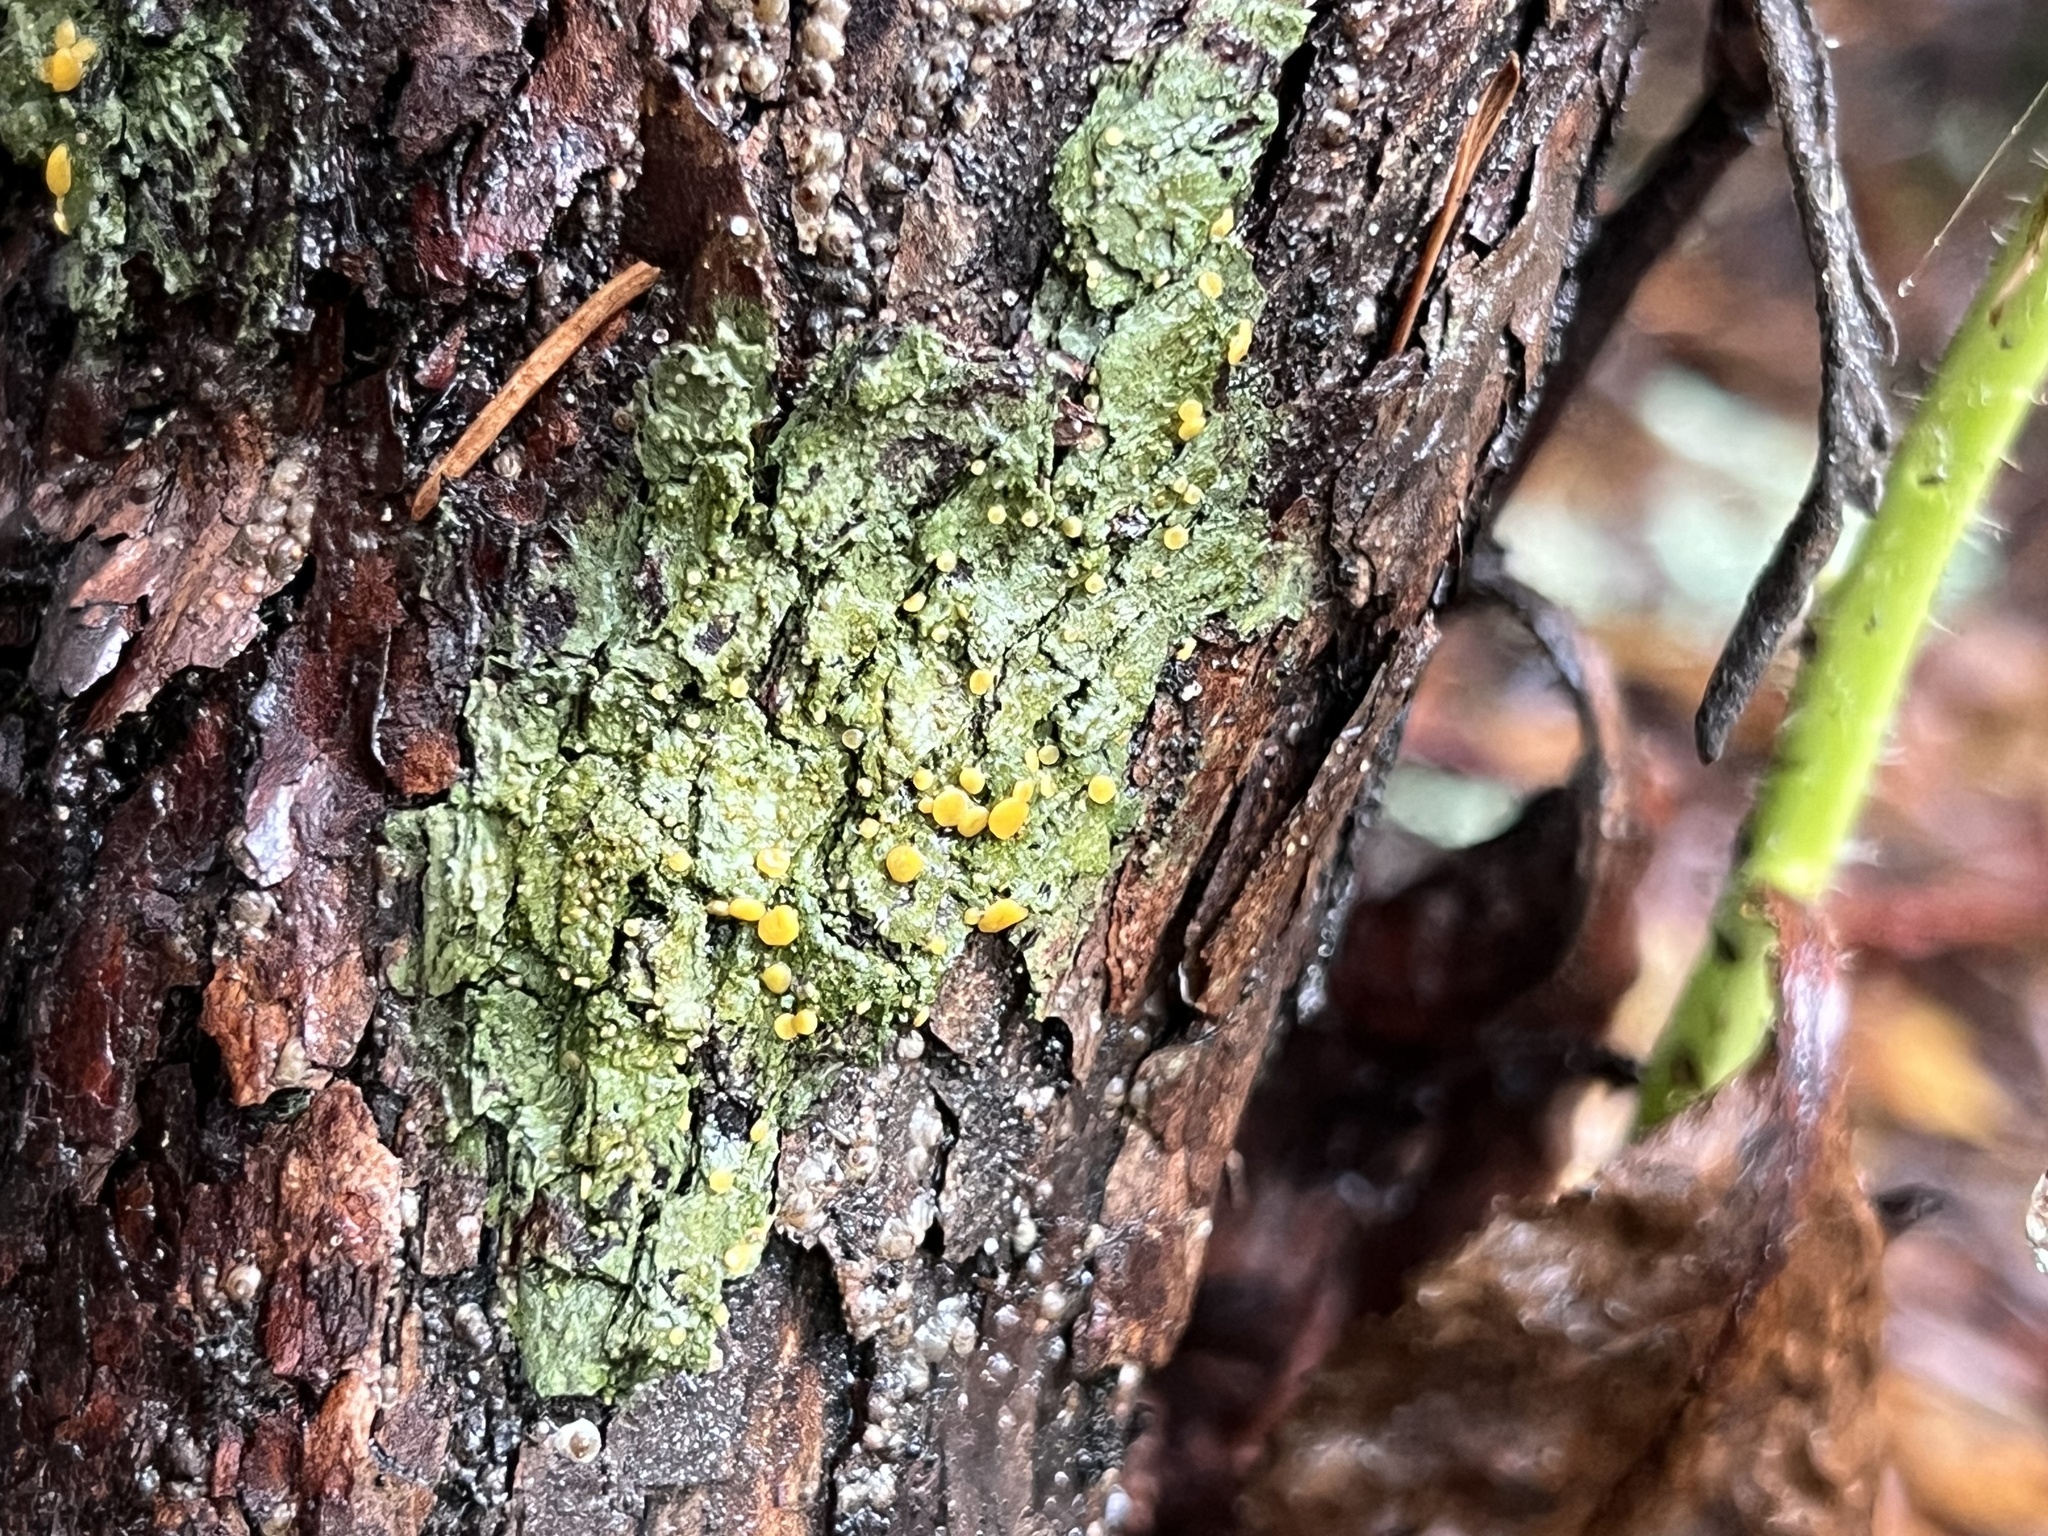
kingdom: Fungi
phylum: Ascomycota
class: Lecanoromycetes
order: Ostropales
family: Coenogoniaceae
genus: Coenogonium
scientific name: Coenogonium luteum
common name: Orange dimple lichen
